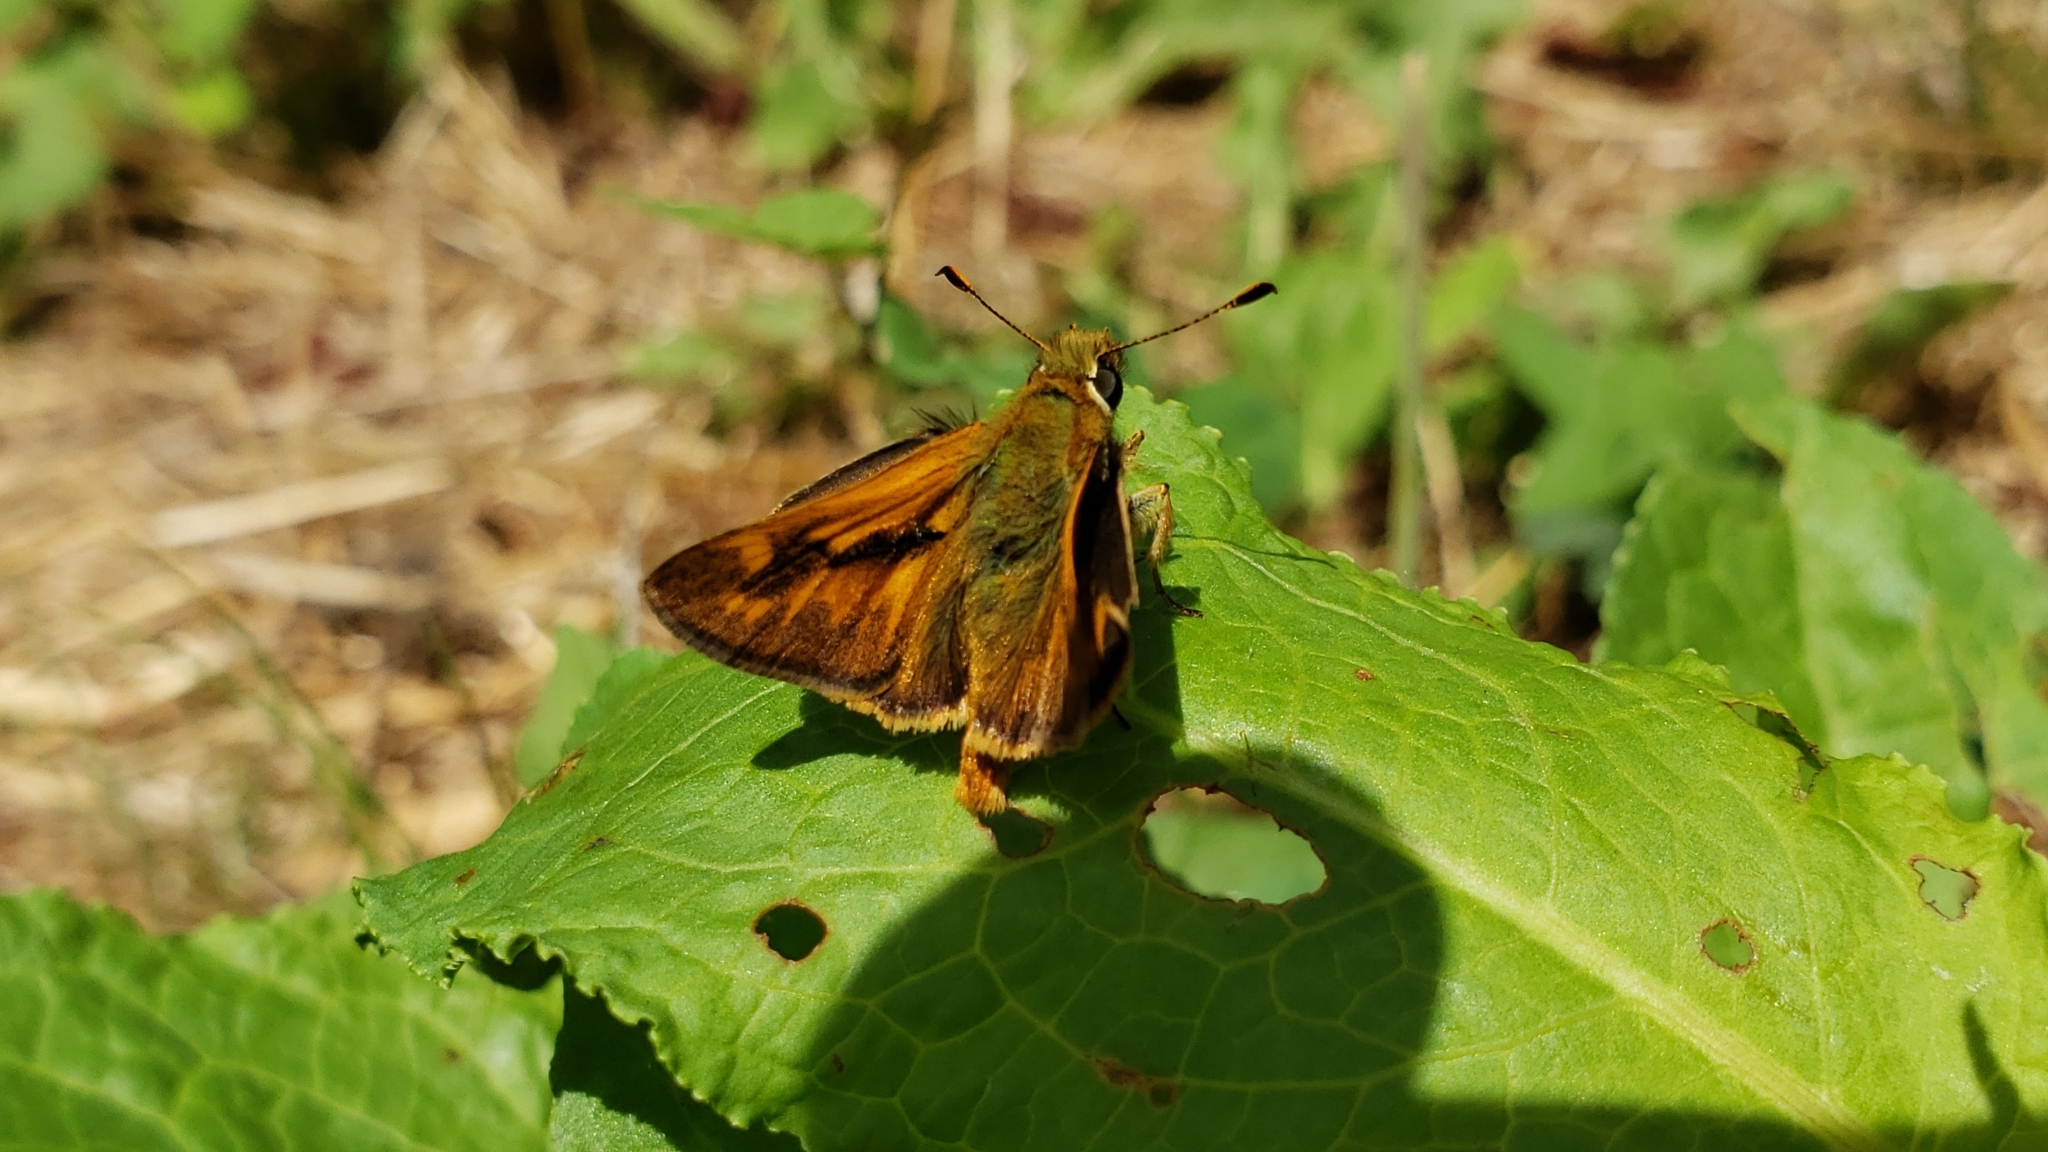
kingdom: Animalia
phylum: Arthropoda
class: Insecta
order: Lepidoptera
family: Hesperiidae
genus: Ochlodes
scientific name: Ochlodes sylvanoides
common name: Woodland skipper
